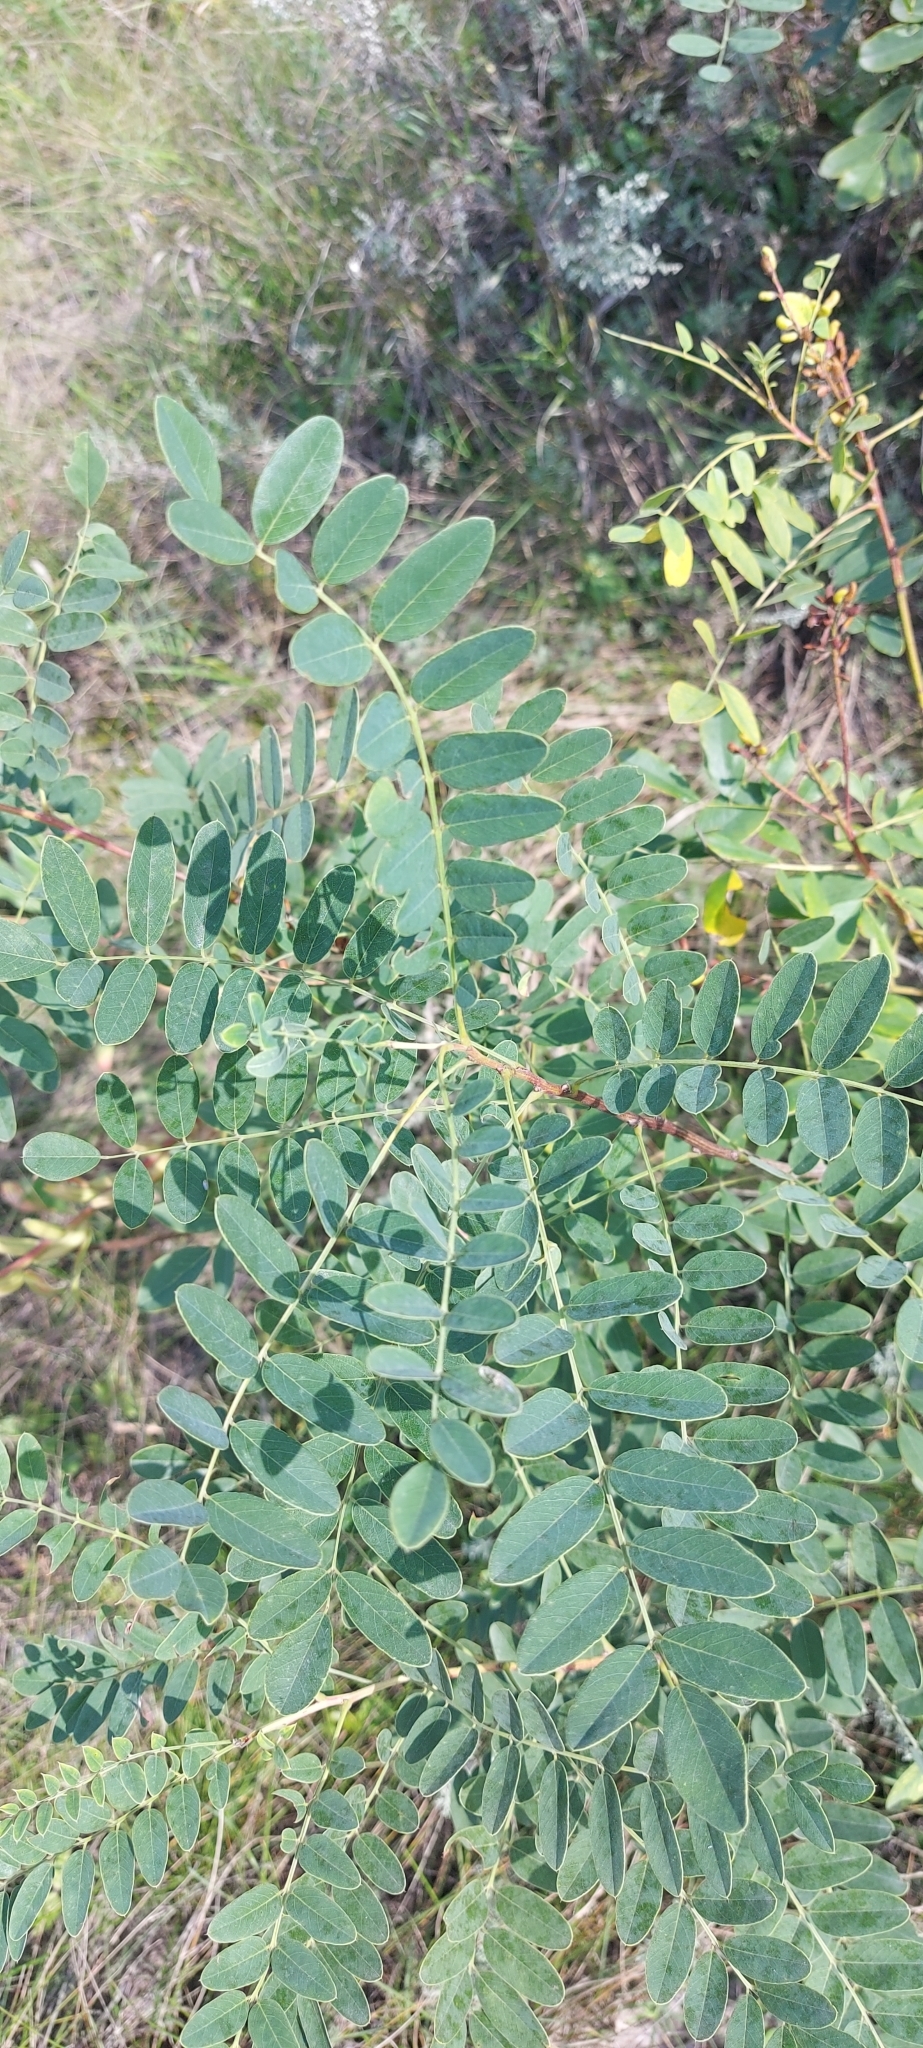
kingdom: Plantae
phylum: Tracheophyta
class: Magnoliopsida
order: Fabales
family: Fabaceae
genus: Caragana
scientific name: Caragana arborescens
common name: Siberian peashrub
